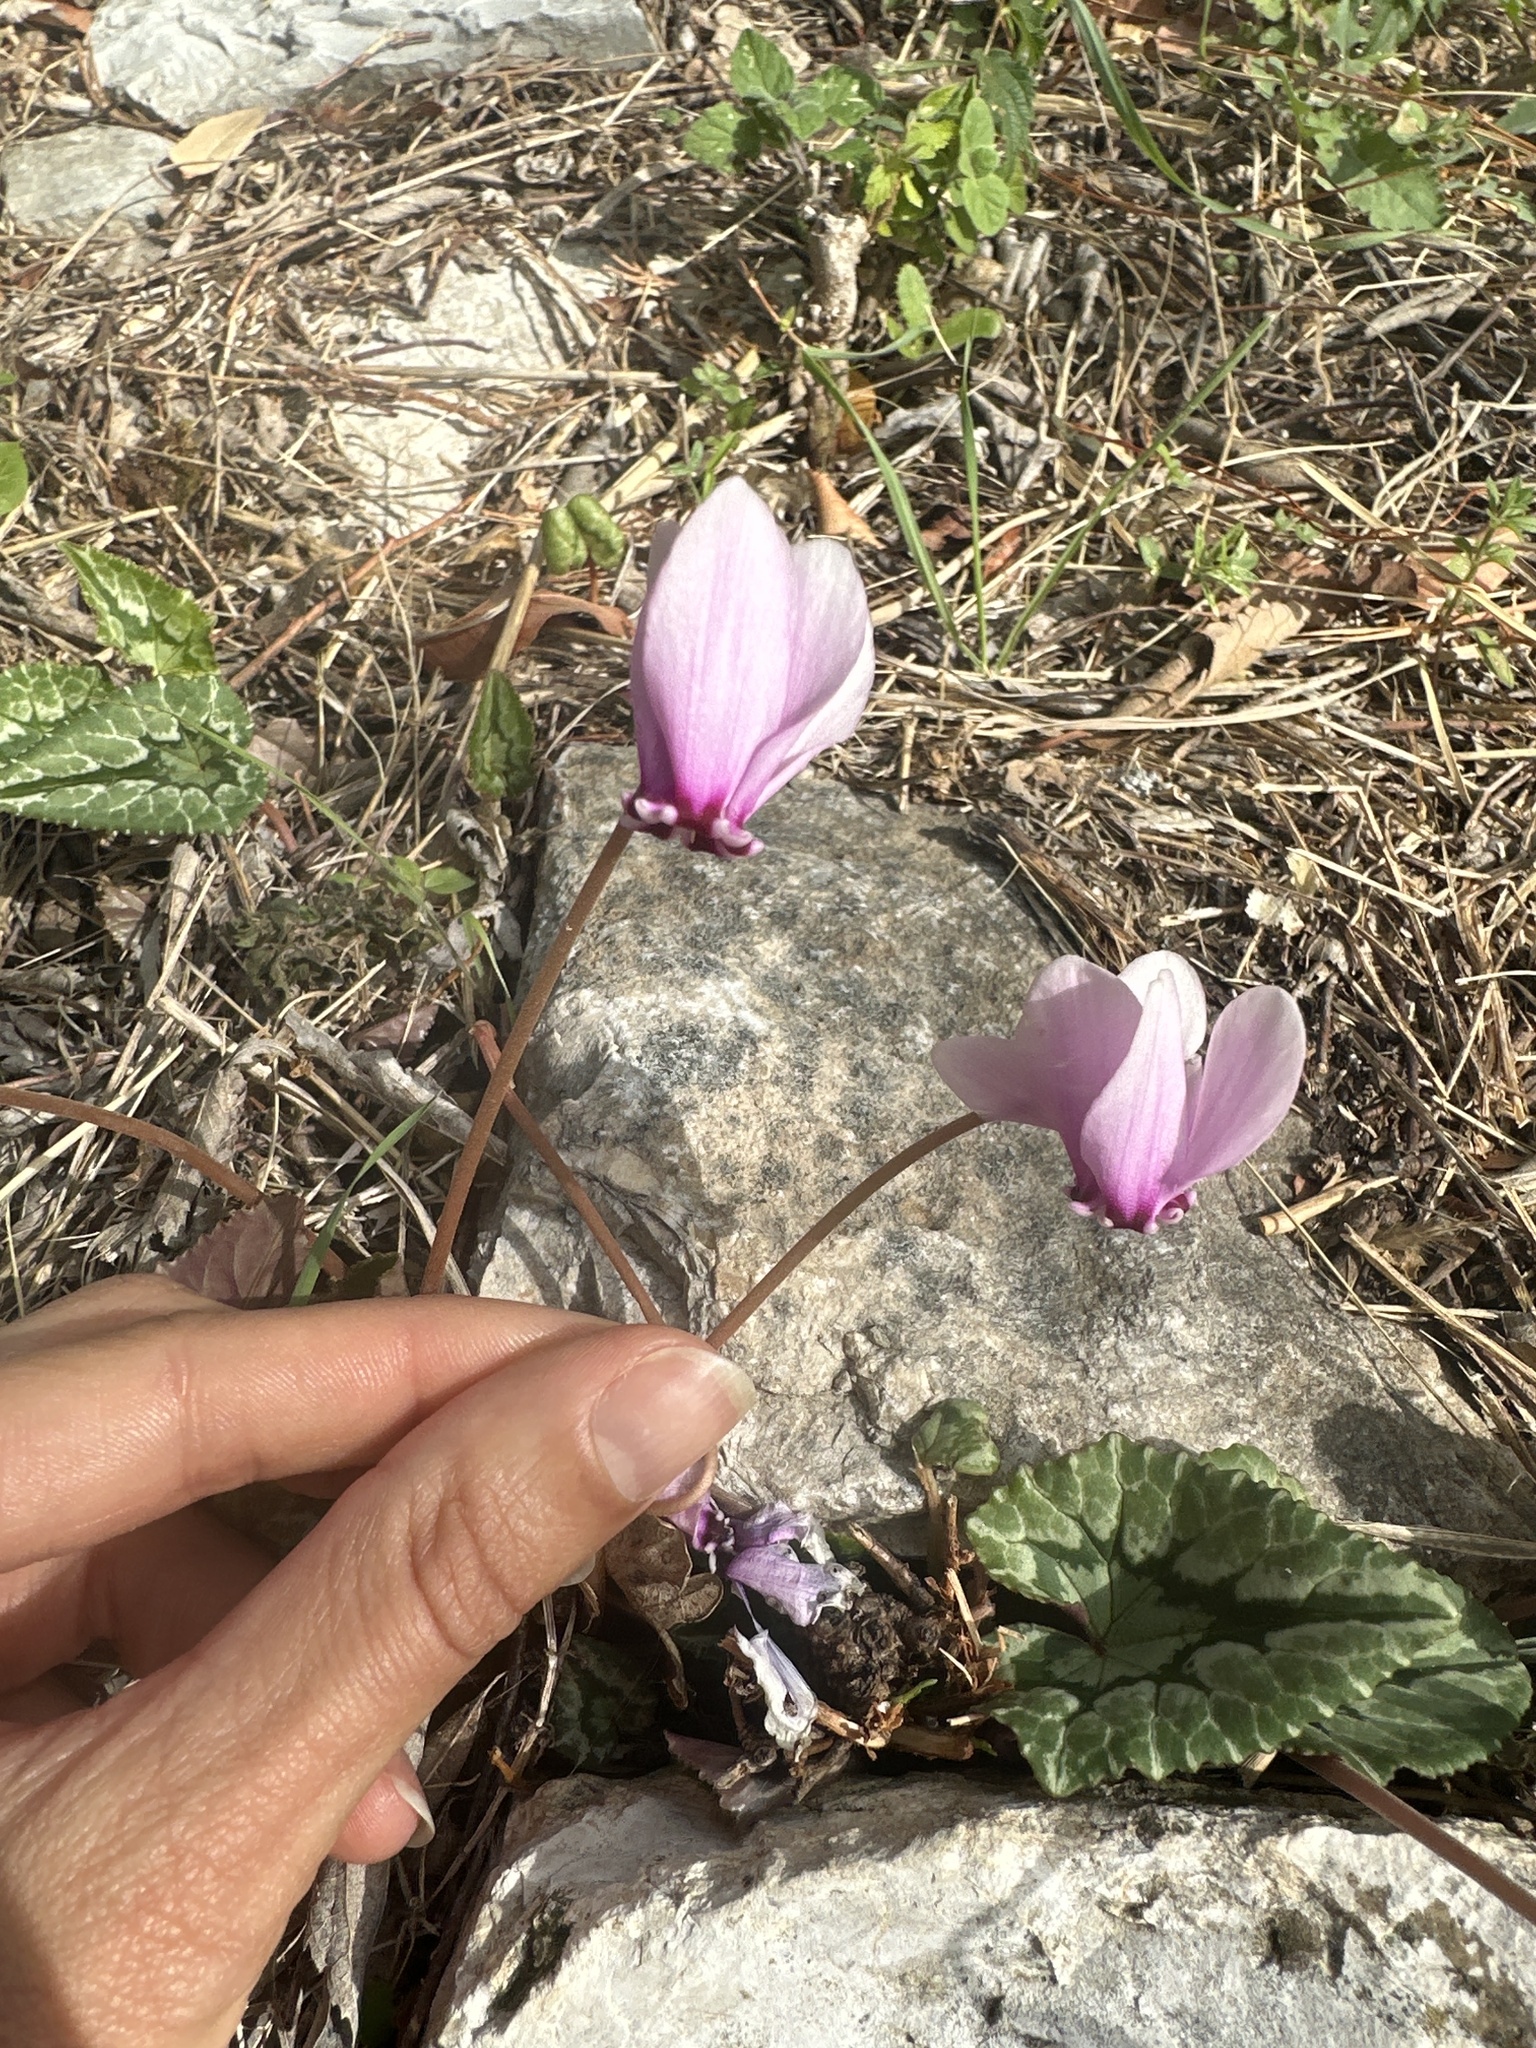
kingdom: Plantae
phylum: Tracheophyta
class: Magnoliopsida
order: Ericales
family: Primulaceae
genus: Cyclamen
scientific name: Cyclamen hederifolium
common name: Sowbread
